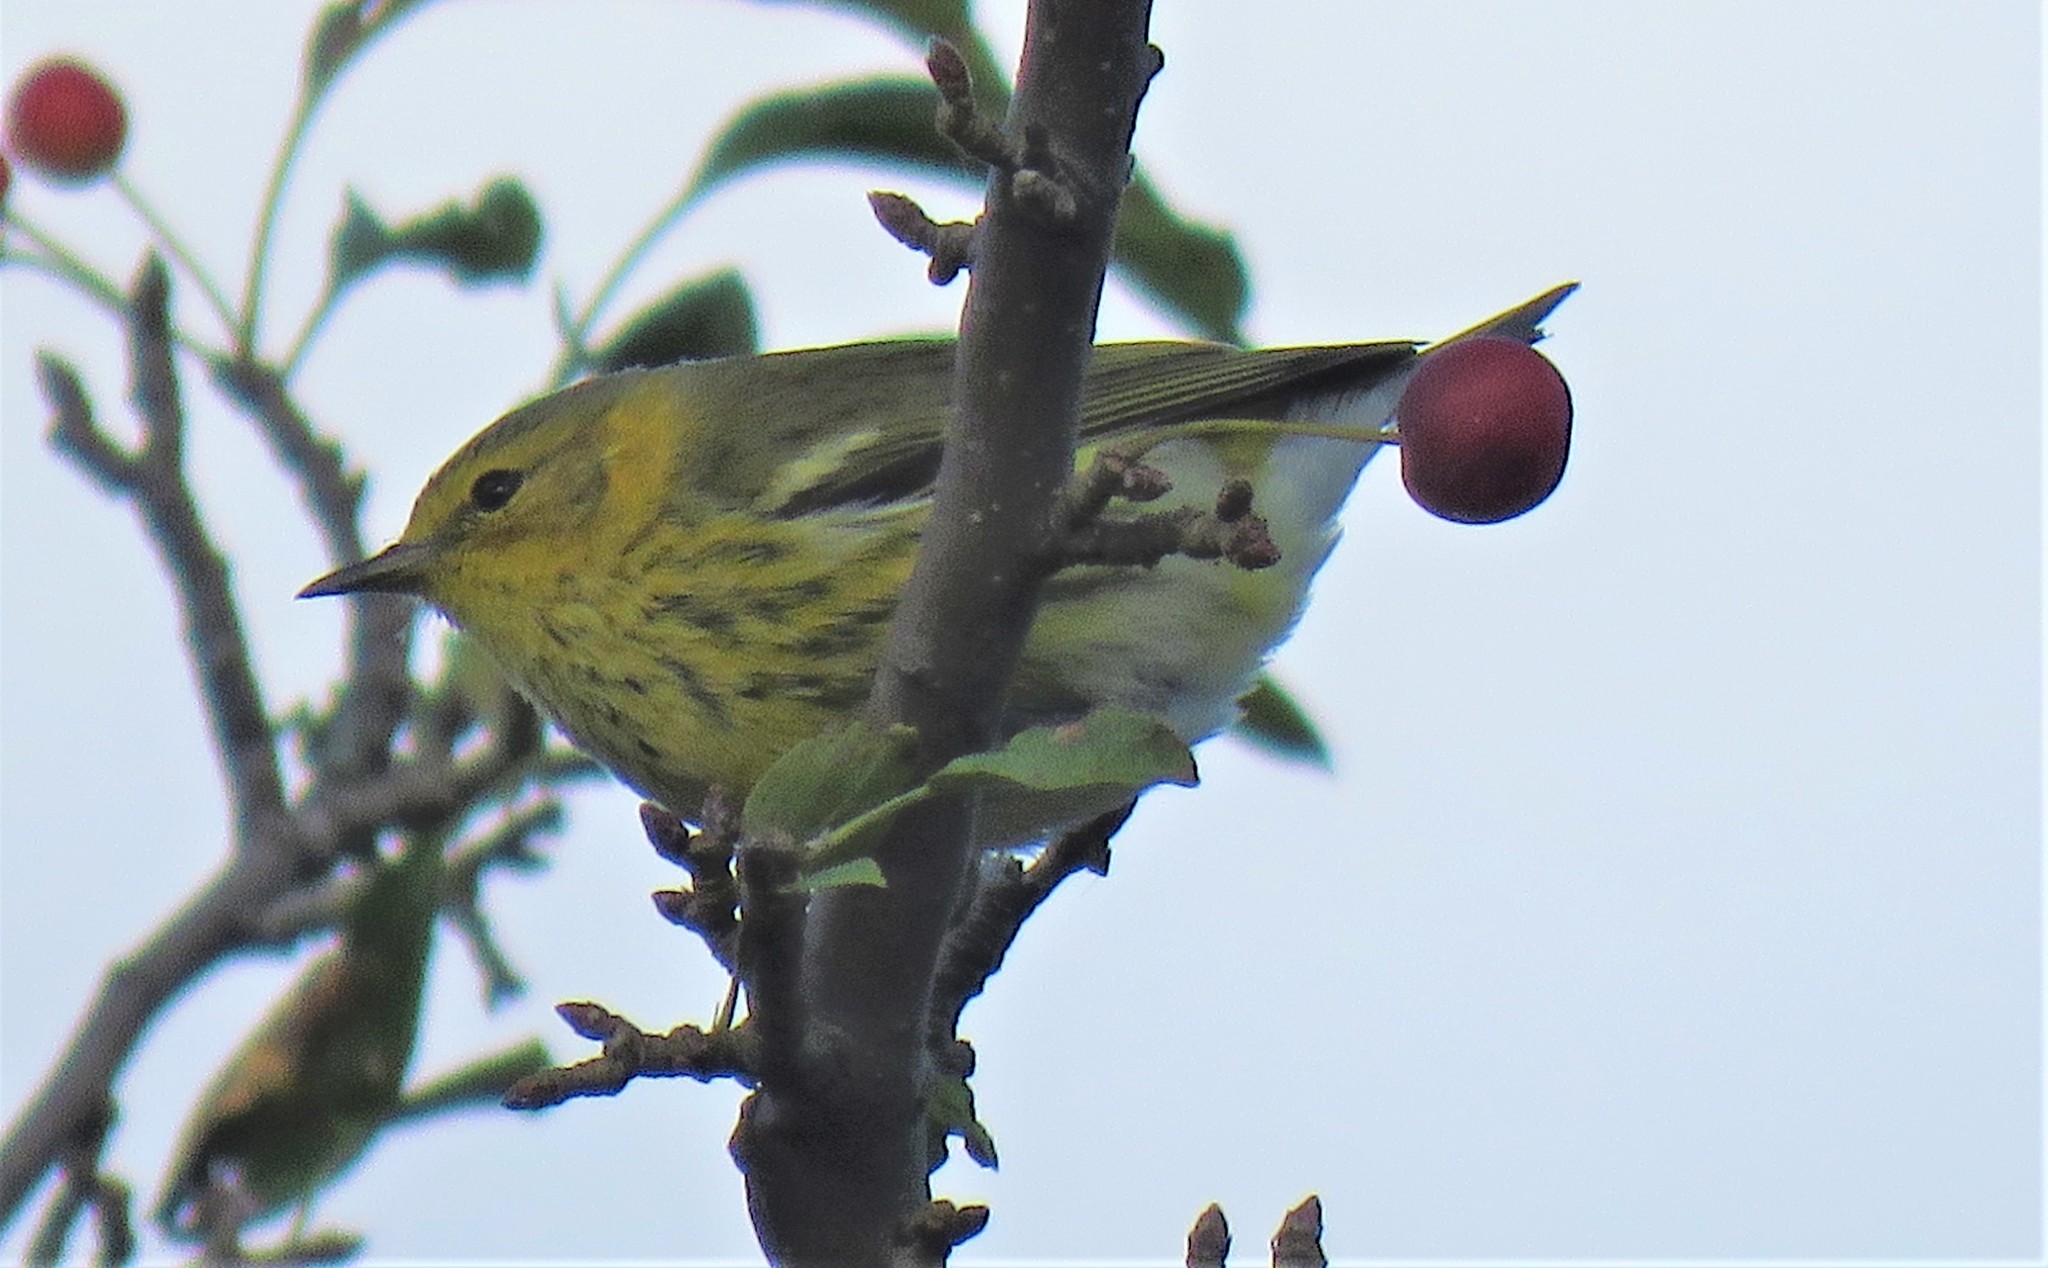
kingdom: Animalia
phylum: Chordata
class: Aves
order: Passeriformes
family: Parulidae
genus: Setophaga
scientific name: Setophaga tigrina
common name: Cape may warbler
